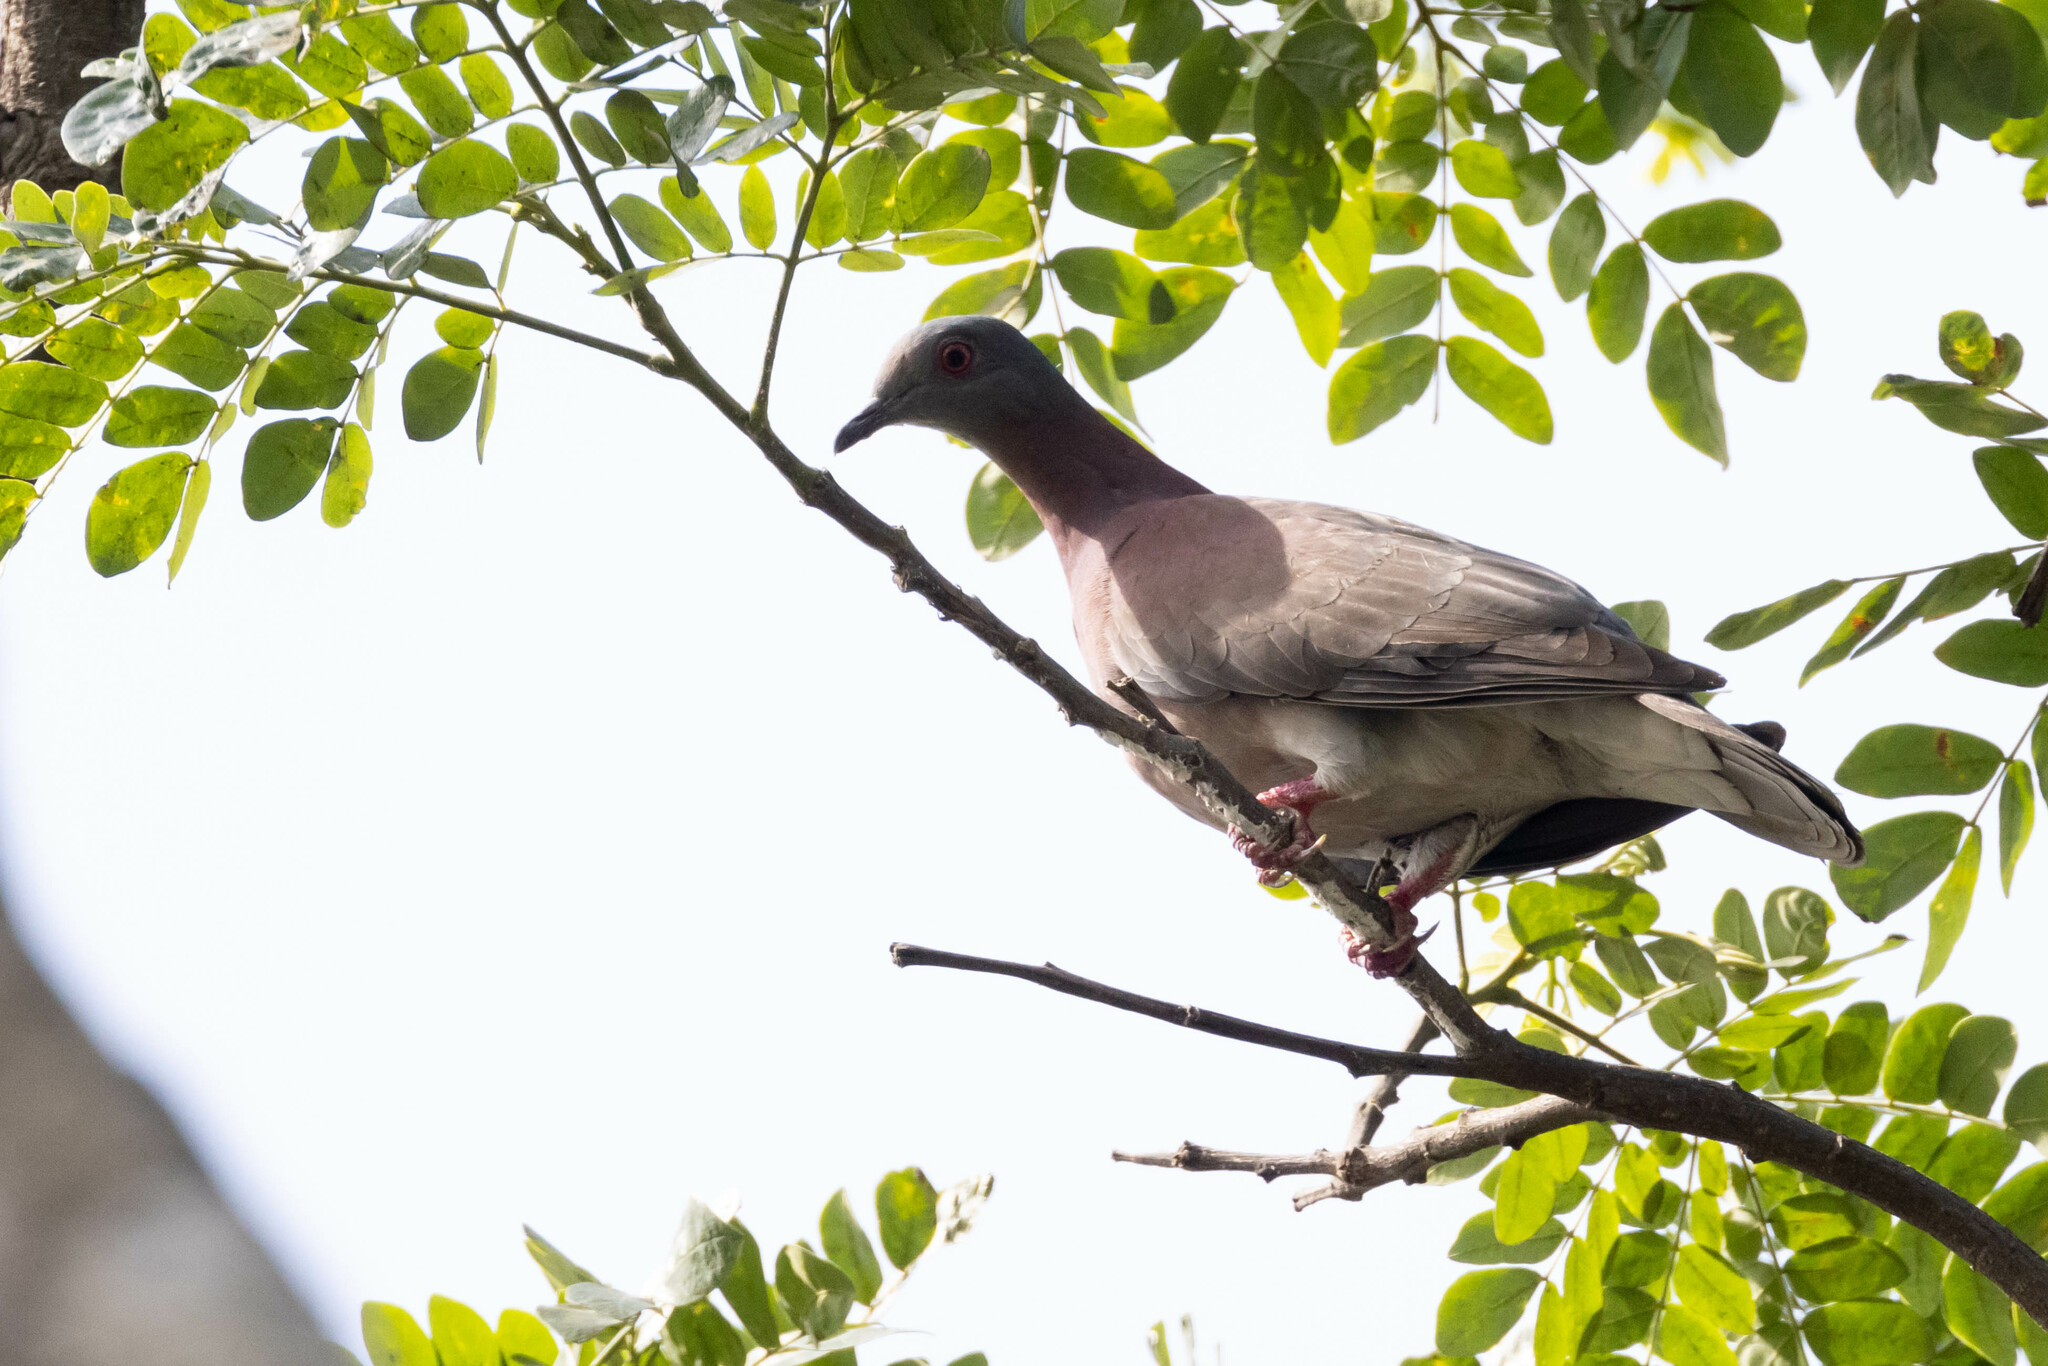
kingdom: Animalia
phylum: Chordata
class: Aves
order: Columbiformes
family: Columbidae
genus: Patagioenas
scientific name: Patagioenas cayennensis
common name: Pale-vented pigeon
